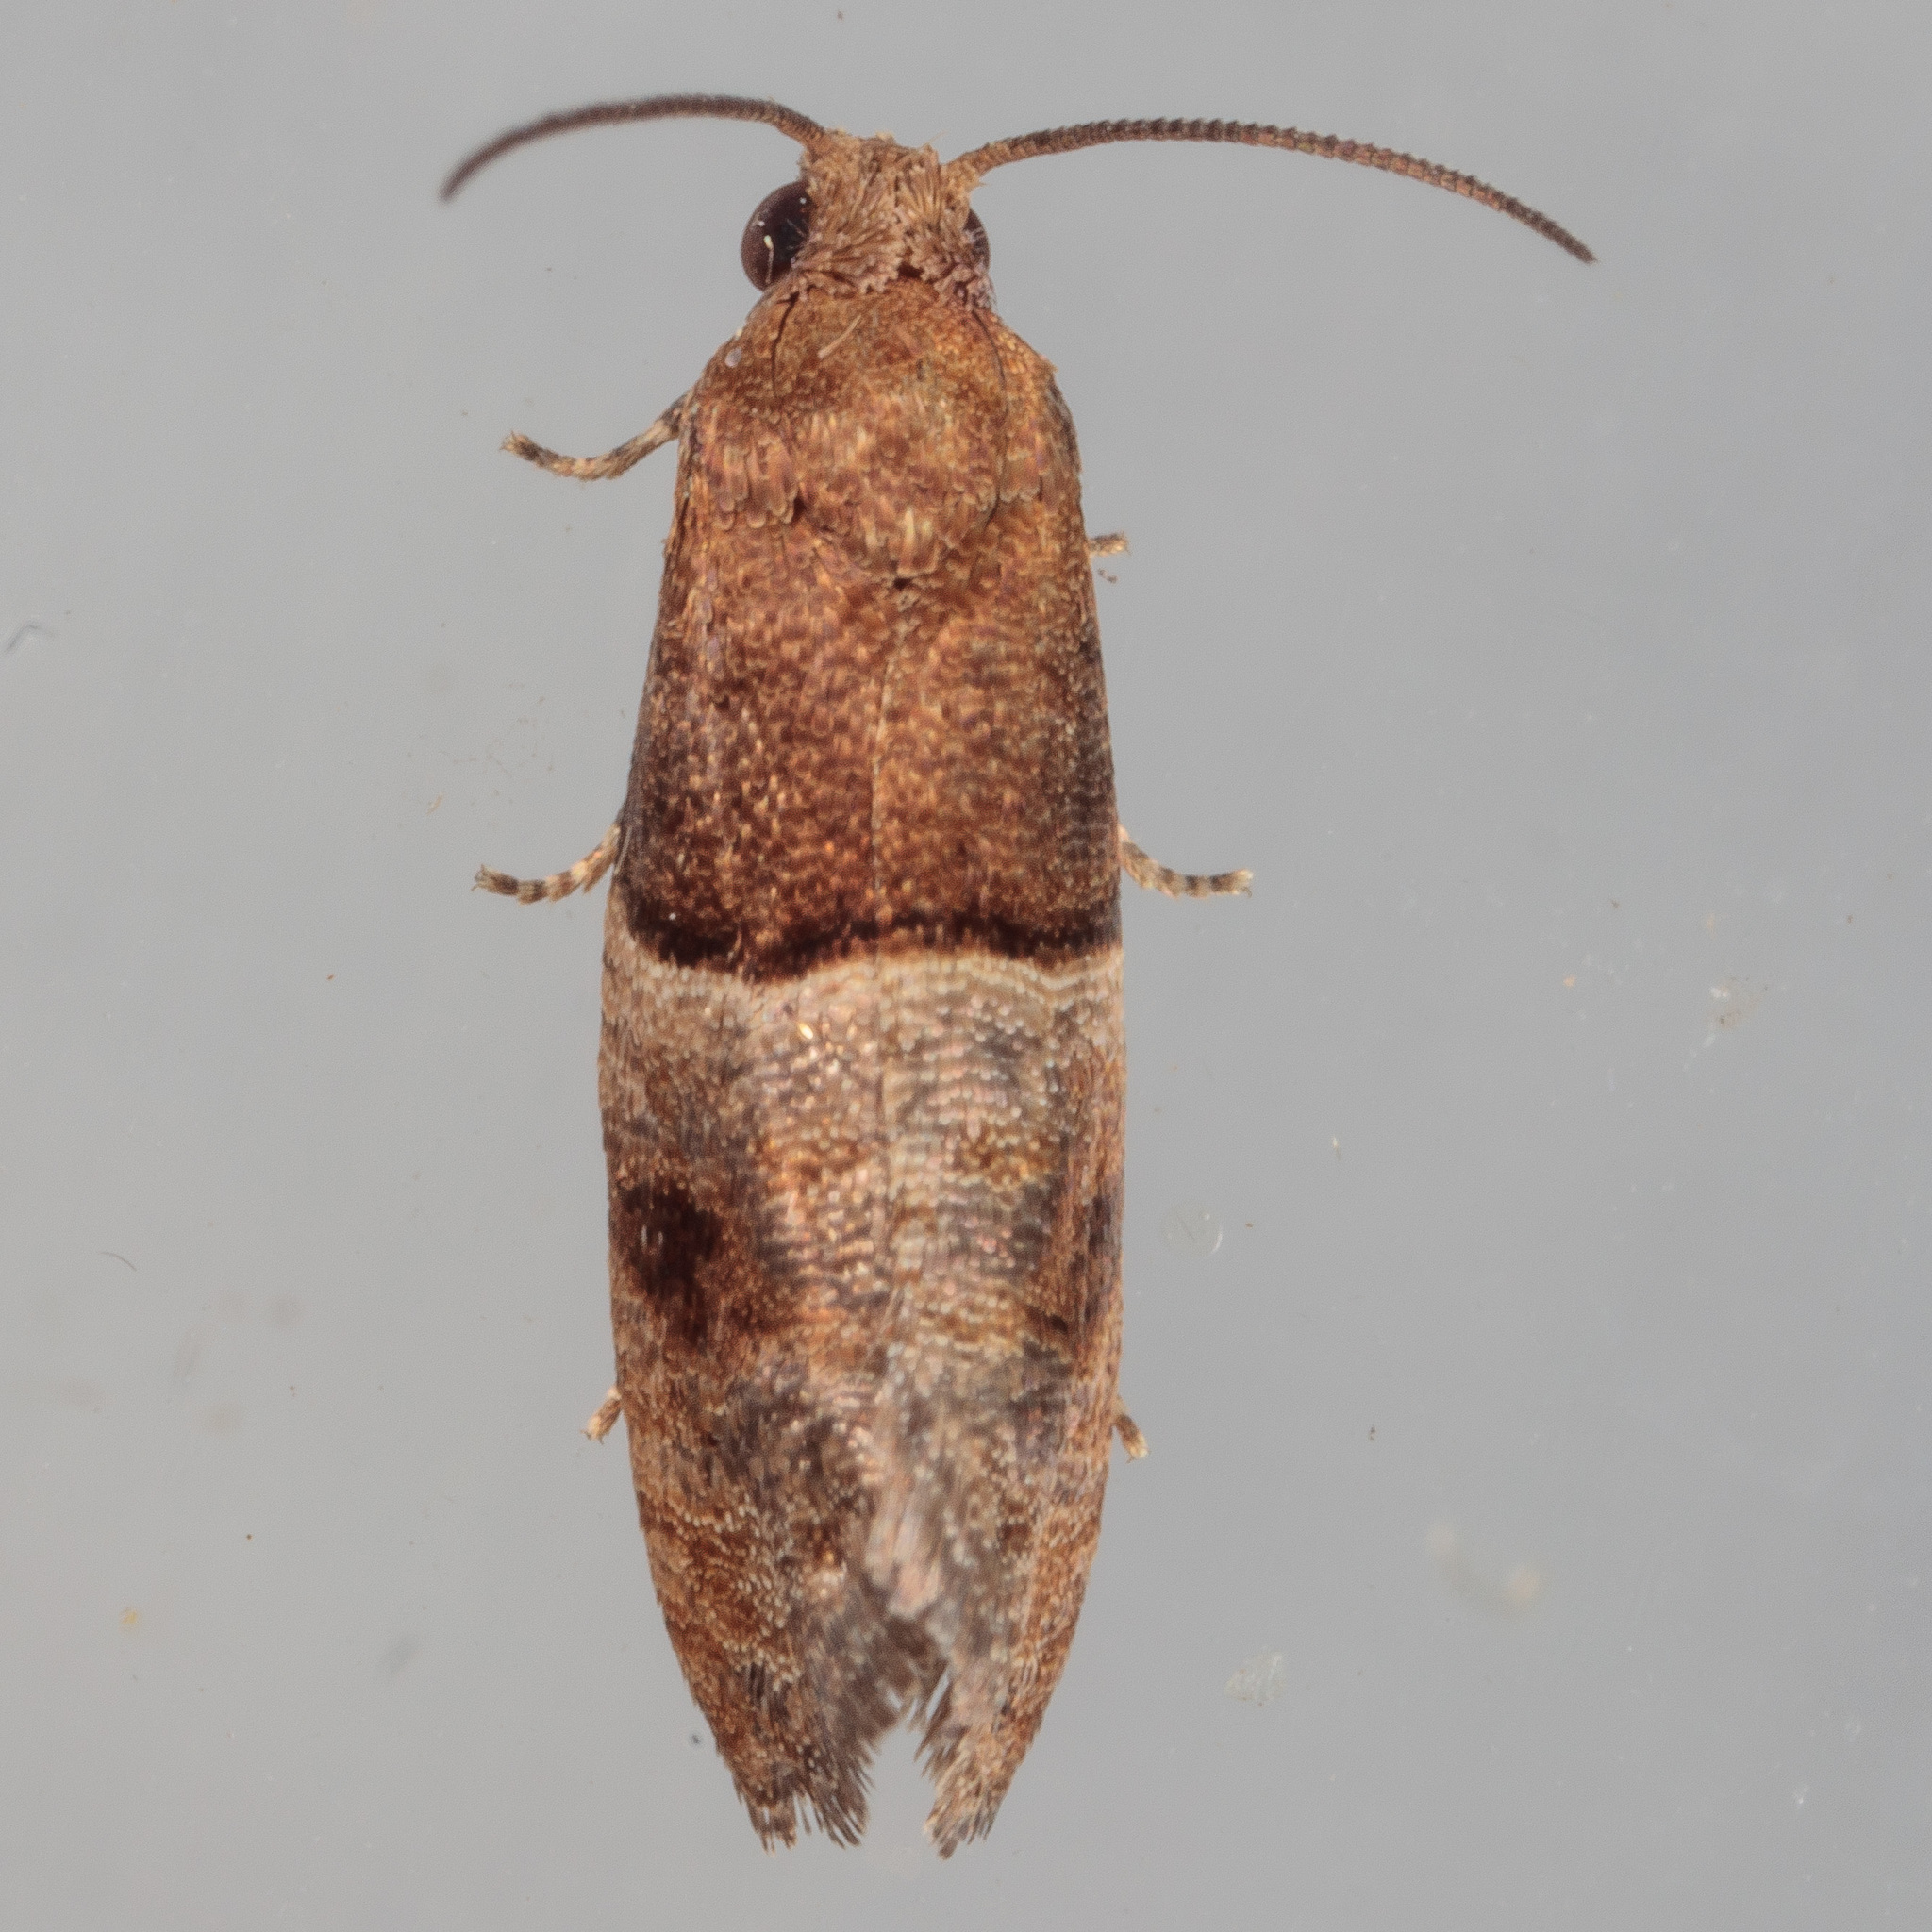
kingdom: Animalia
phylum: Arthropoda
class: Insecta
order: Lepidoptera
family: Tortricidae
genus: Larisa
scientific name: Larisa subsolana
